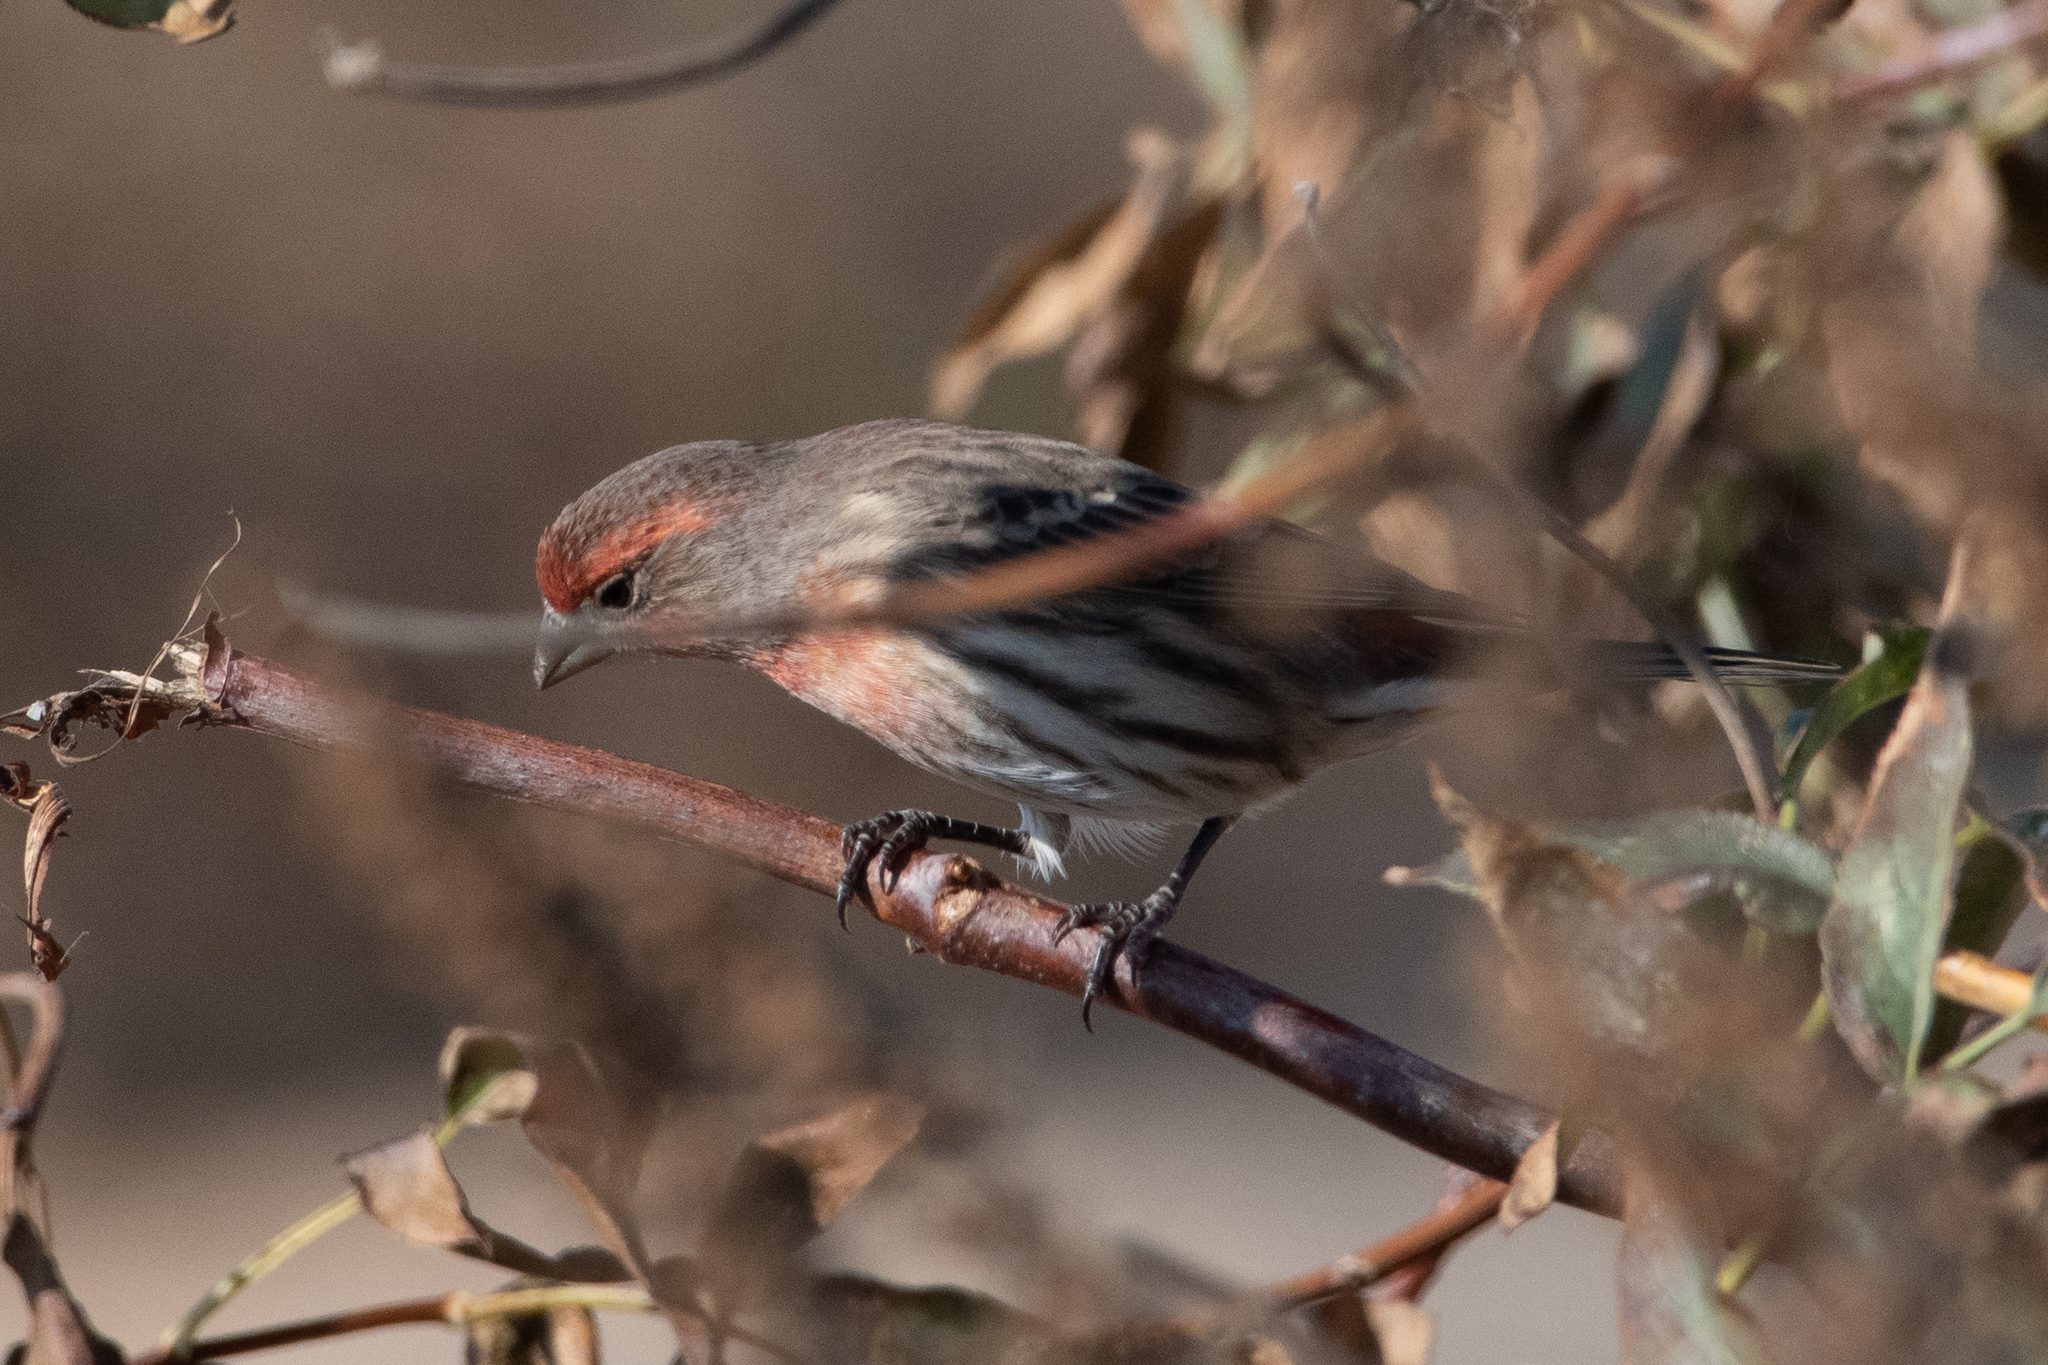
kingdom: Animalia
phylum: Chordata
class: Aves
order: Passeriformes
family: Fringillidae
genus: Haemorhous
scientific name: Haemorhous mexicanus
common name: House finch
